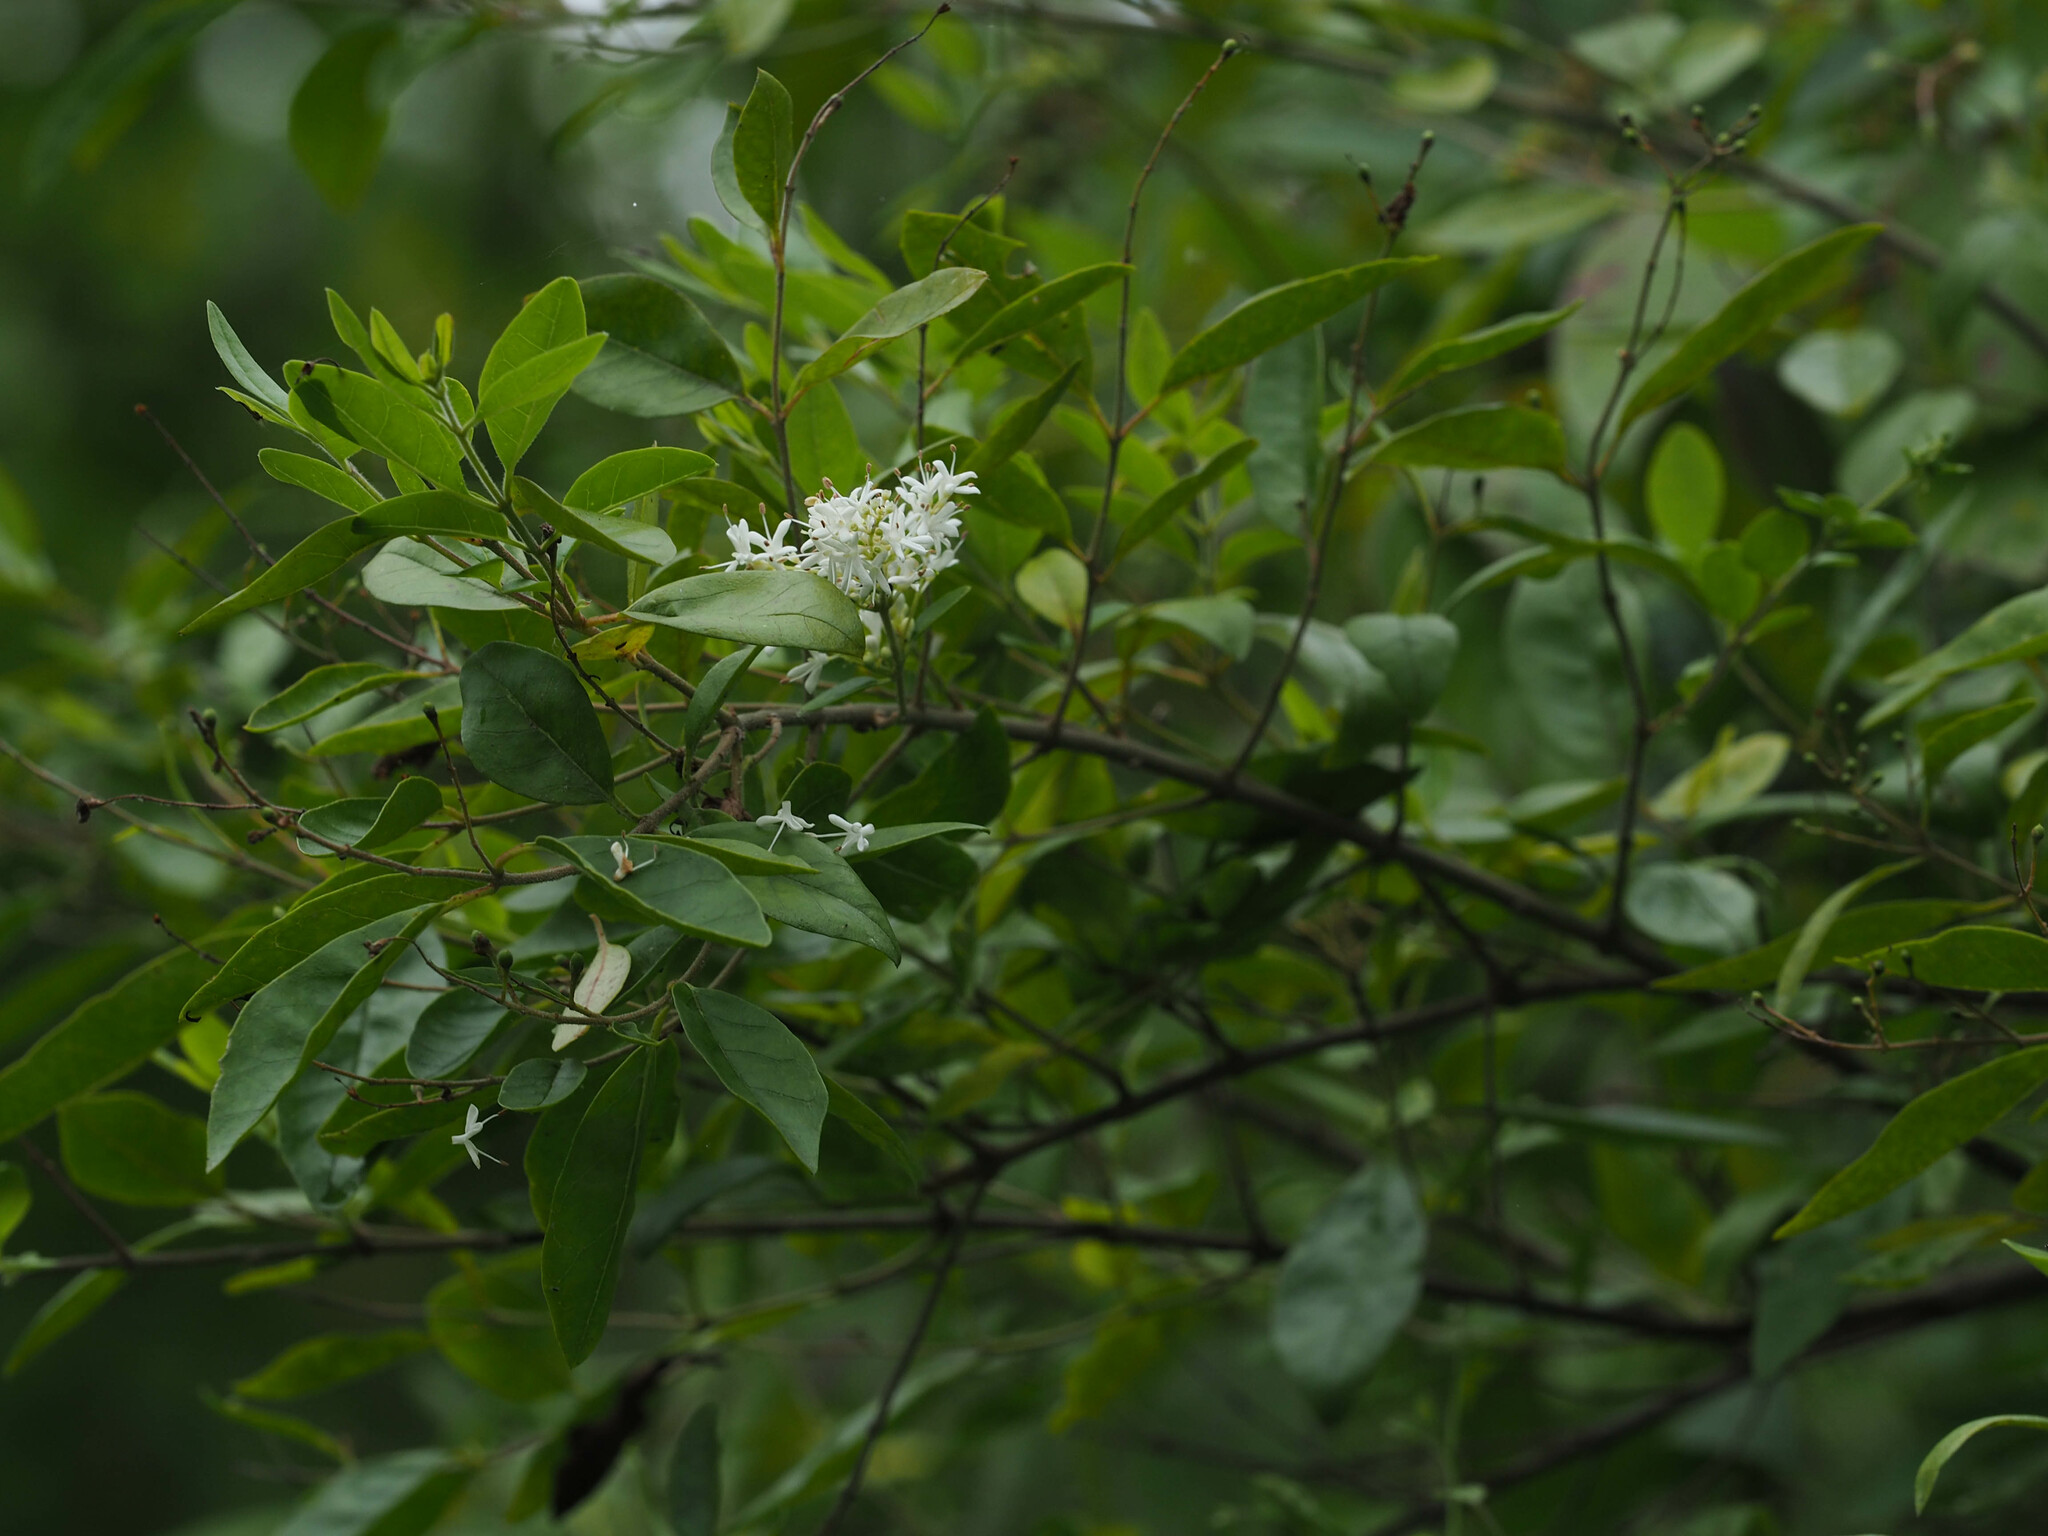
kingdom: Plantae
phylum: Tracheophyta
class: Magnoliopsida
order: Lamiales
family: Oleaceae
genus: Ligustrum
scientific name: Ligustrum sinense
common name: Chinese privet
